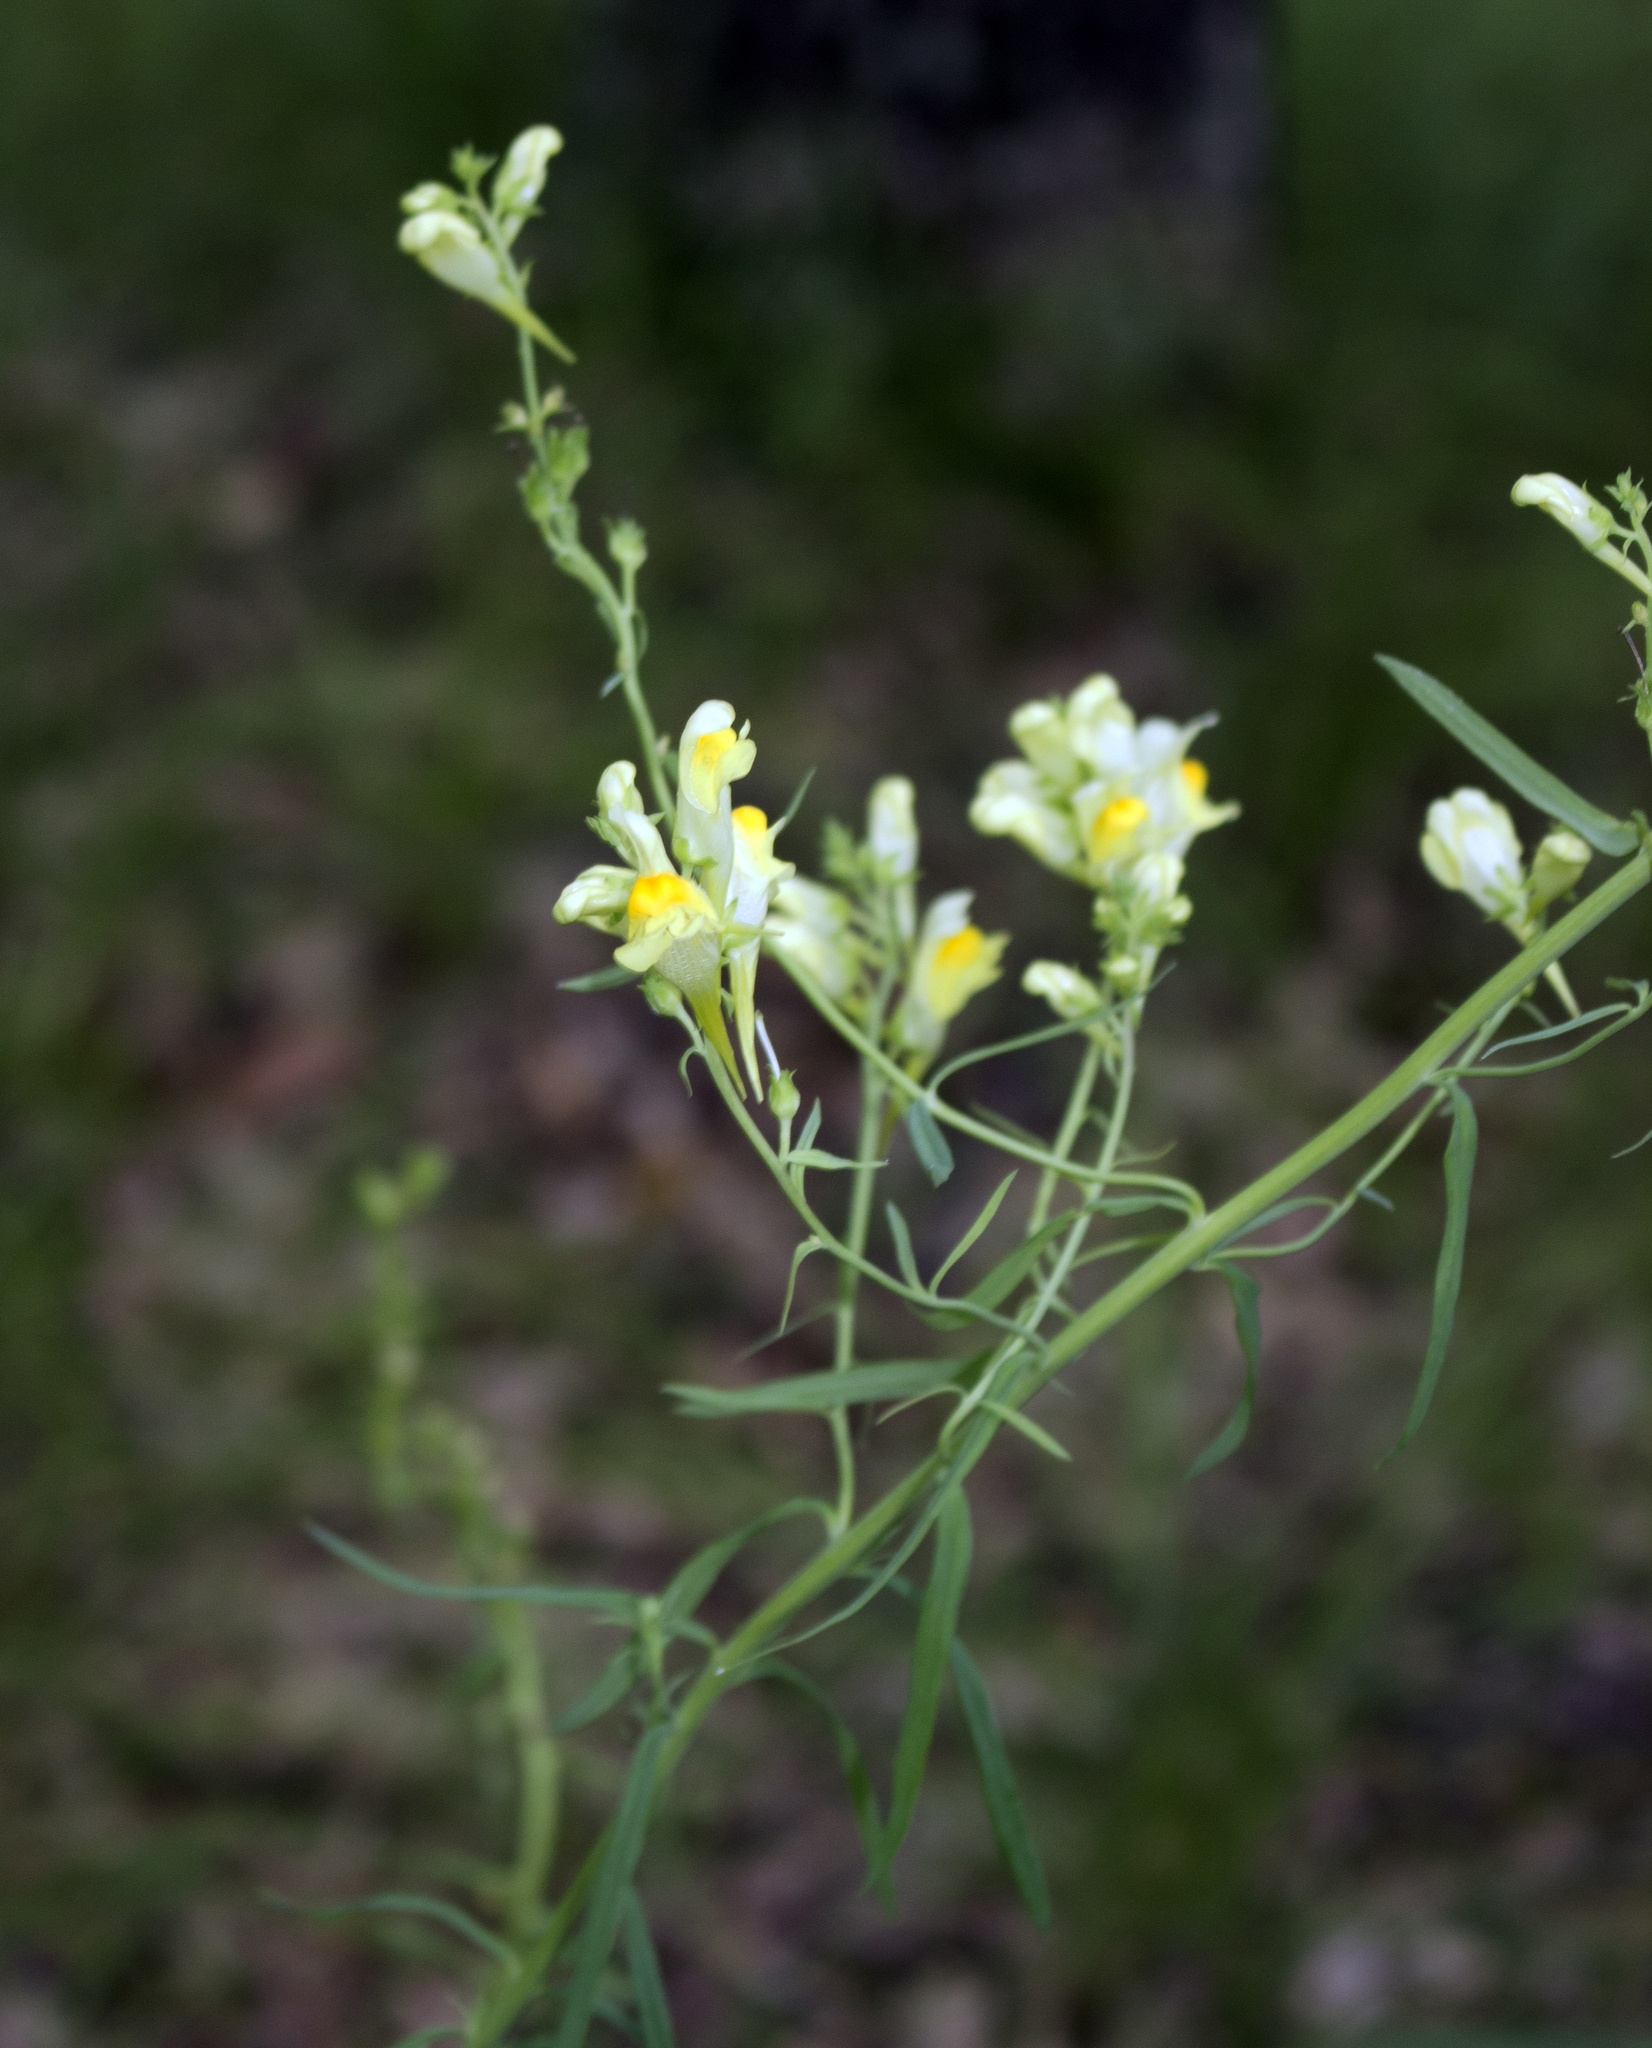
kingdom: Plantae
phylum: Tracheophyta
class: Magnoliopsida
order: Lamiales
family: Plantaginaceae
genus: Linaria
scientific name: Linaria vulgaris
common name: Butter and eggs
